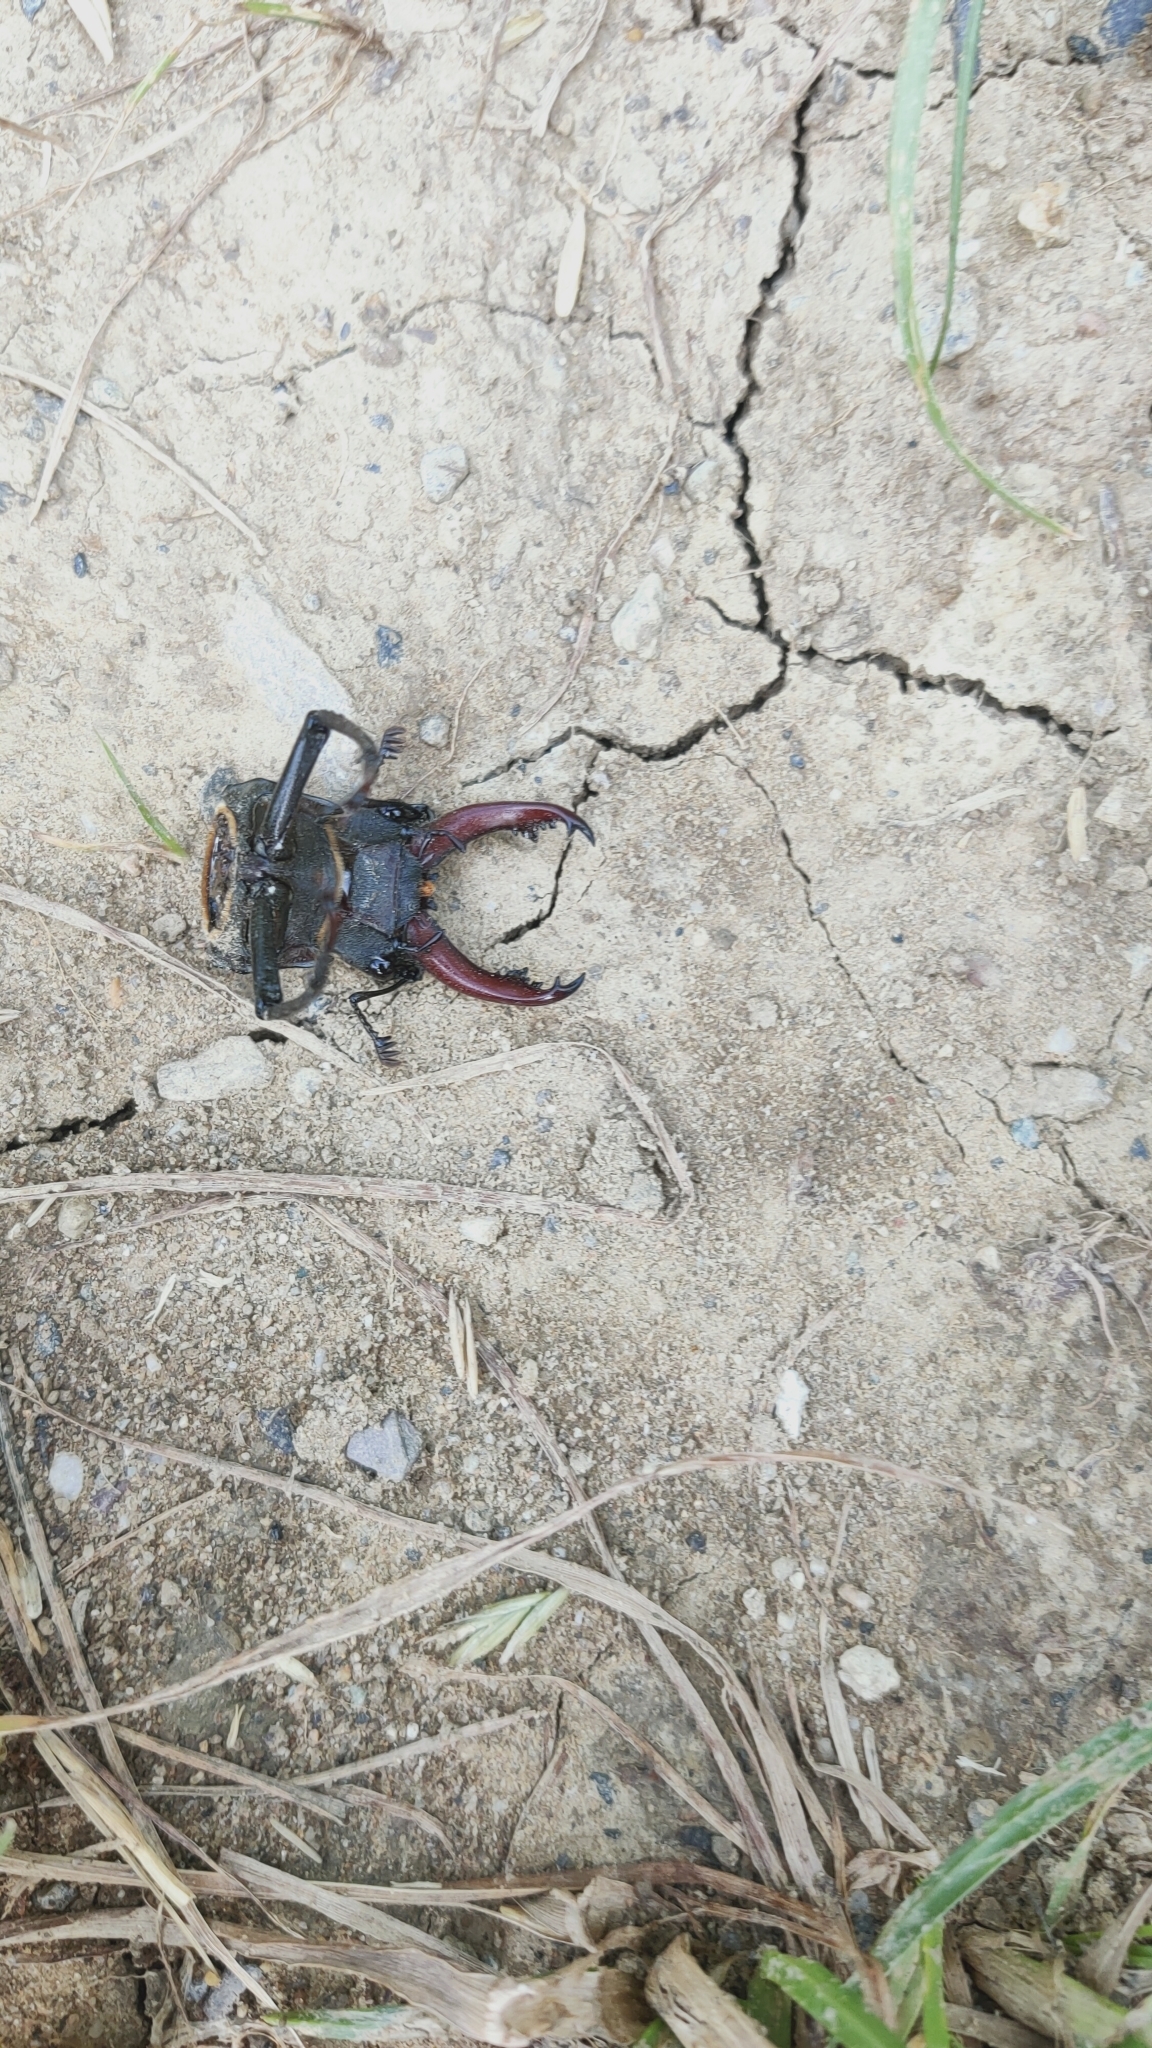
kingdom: Animalia
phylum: Arthropoda
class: Insecta
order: Coleoptera
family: Lucanidae
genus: Lucanus
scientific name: Lucanus cervus
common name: Stag beetle
